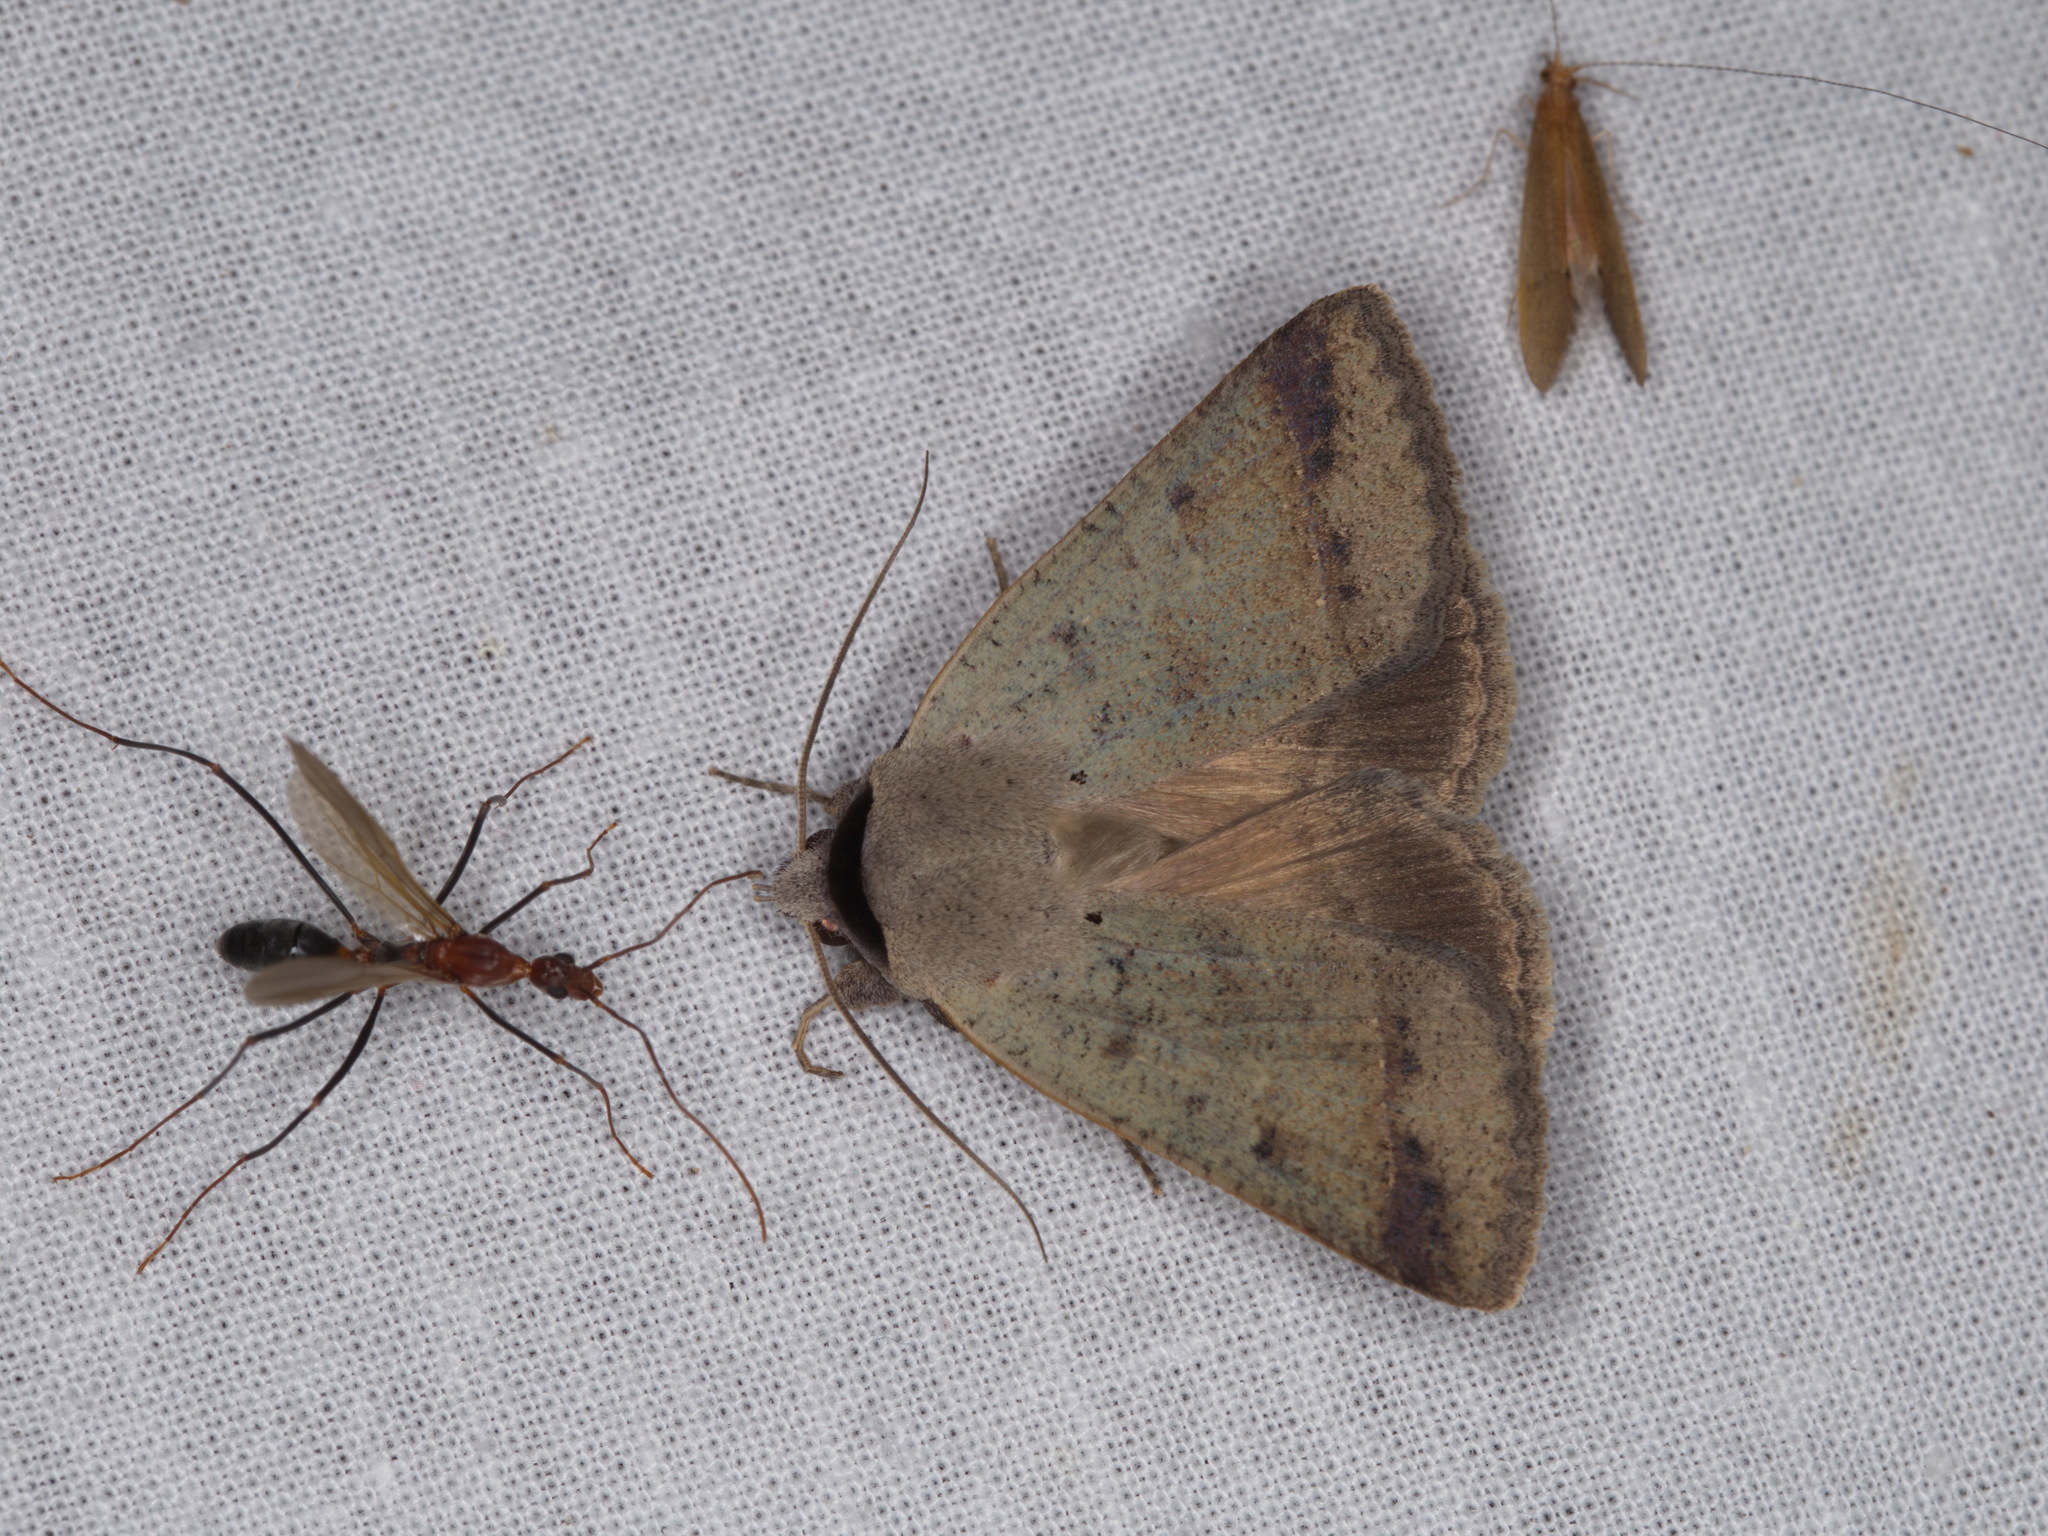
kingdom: Animalia
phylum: Arthropoda
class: Insecta
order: Lepidoptera
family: Erebidae
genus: Pantydia
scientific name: Pantydia sparsa
